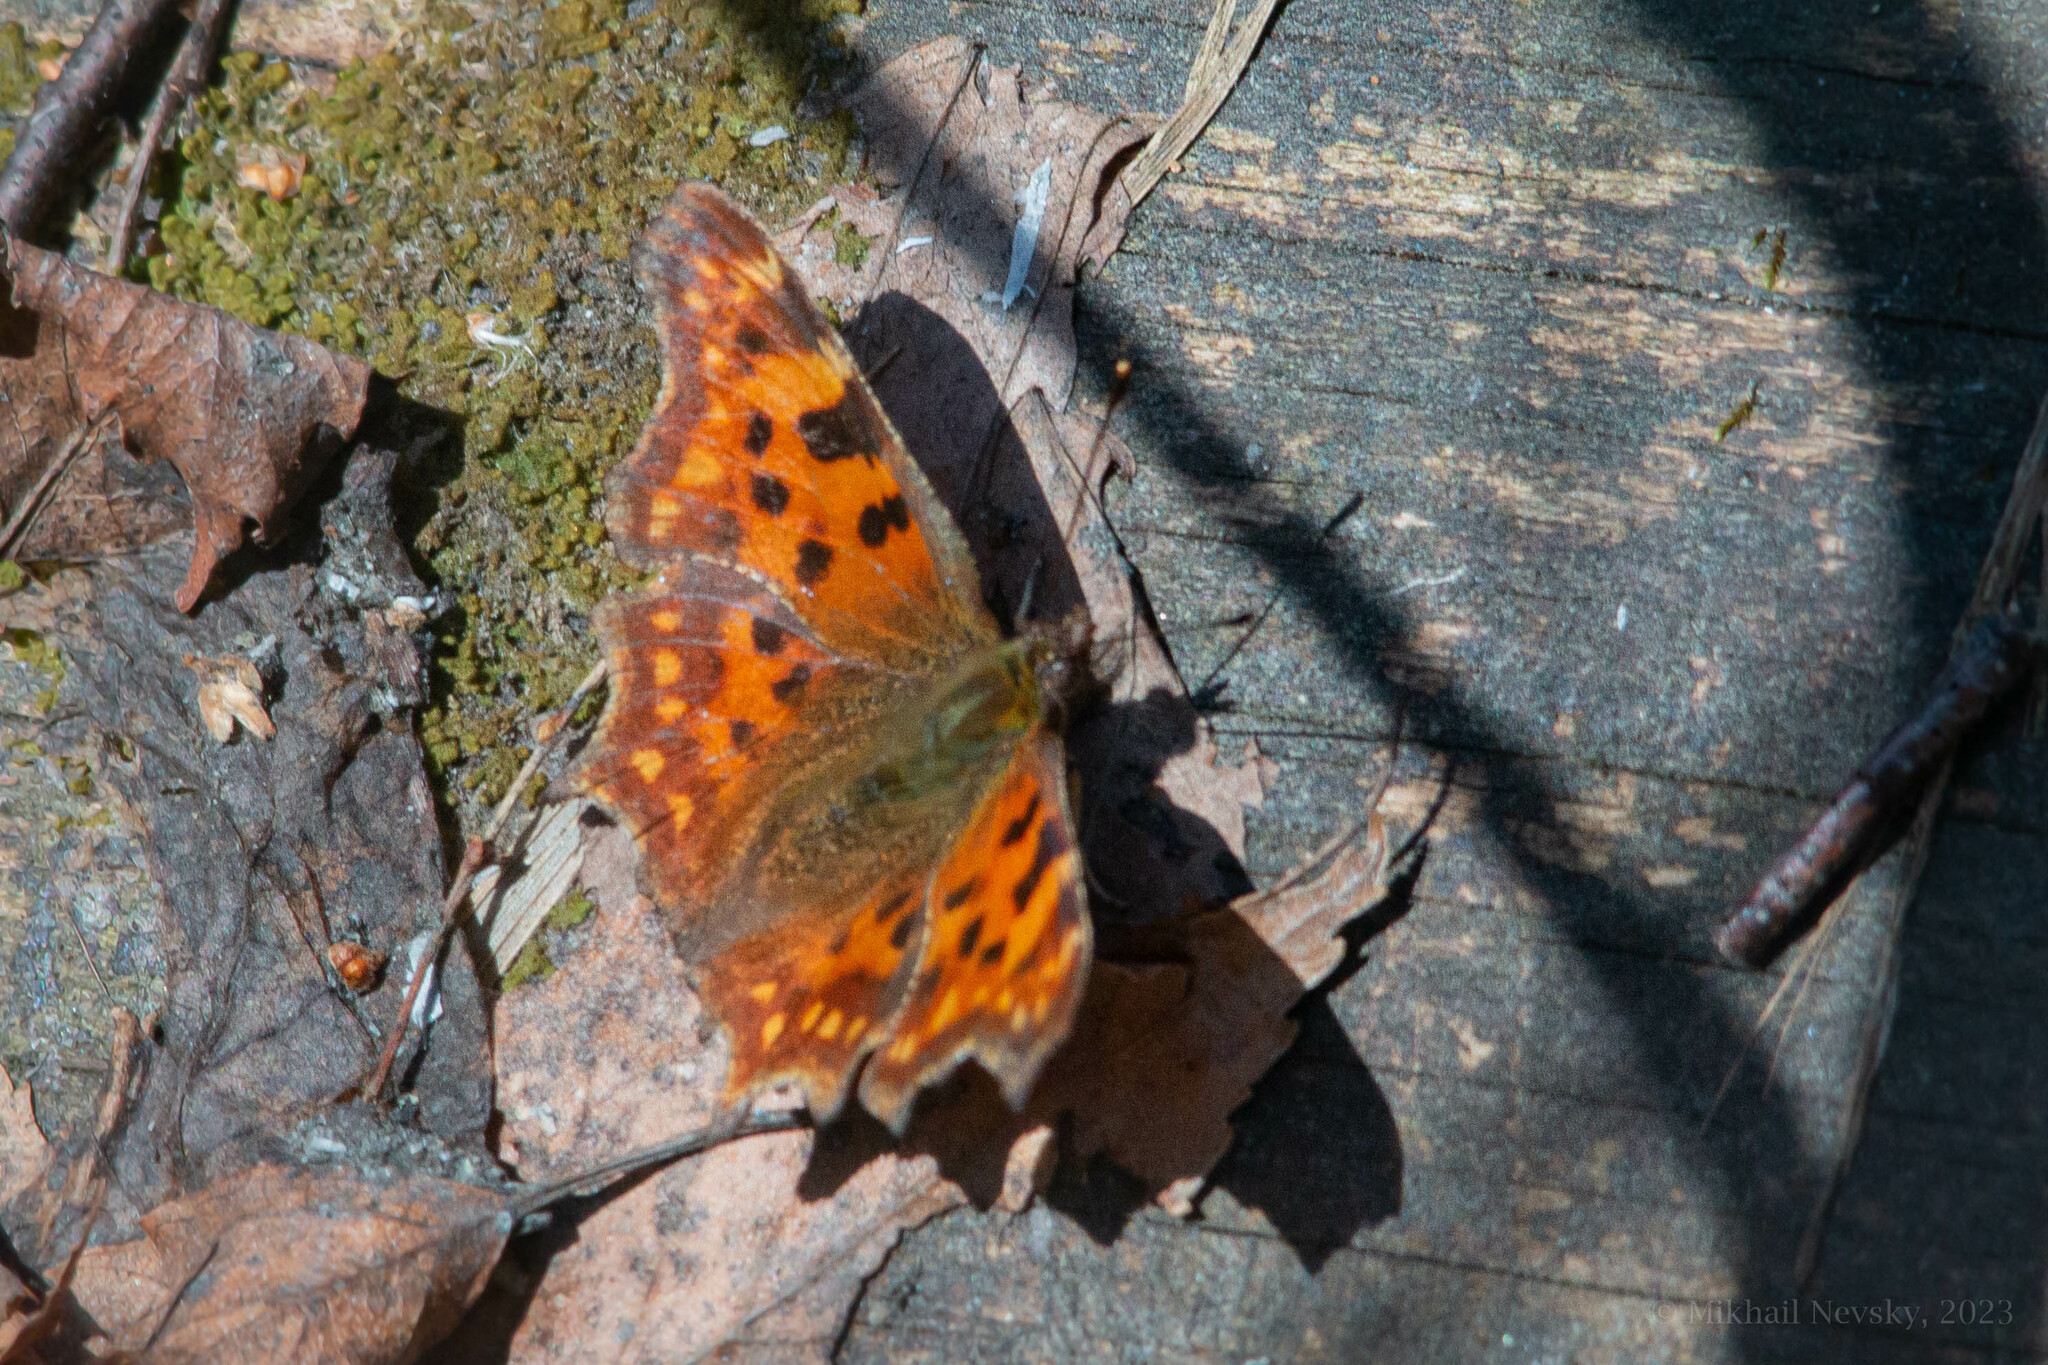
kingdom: Animalia
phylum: Arthropoda
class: Insecta
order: Lepidoptera
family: Nymphalidae
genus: Polygonia
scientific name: Polygonia c-album
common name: Comma
